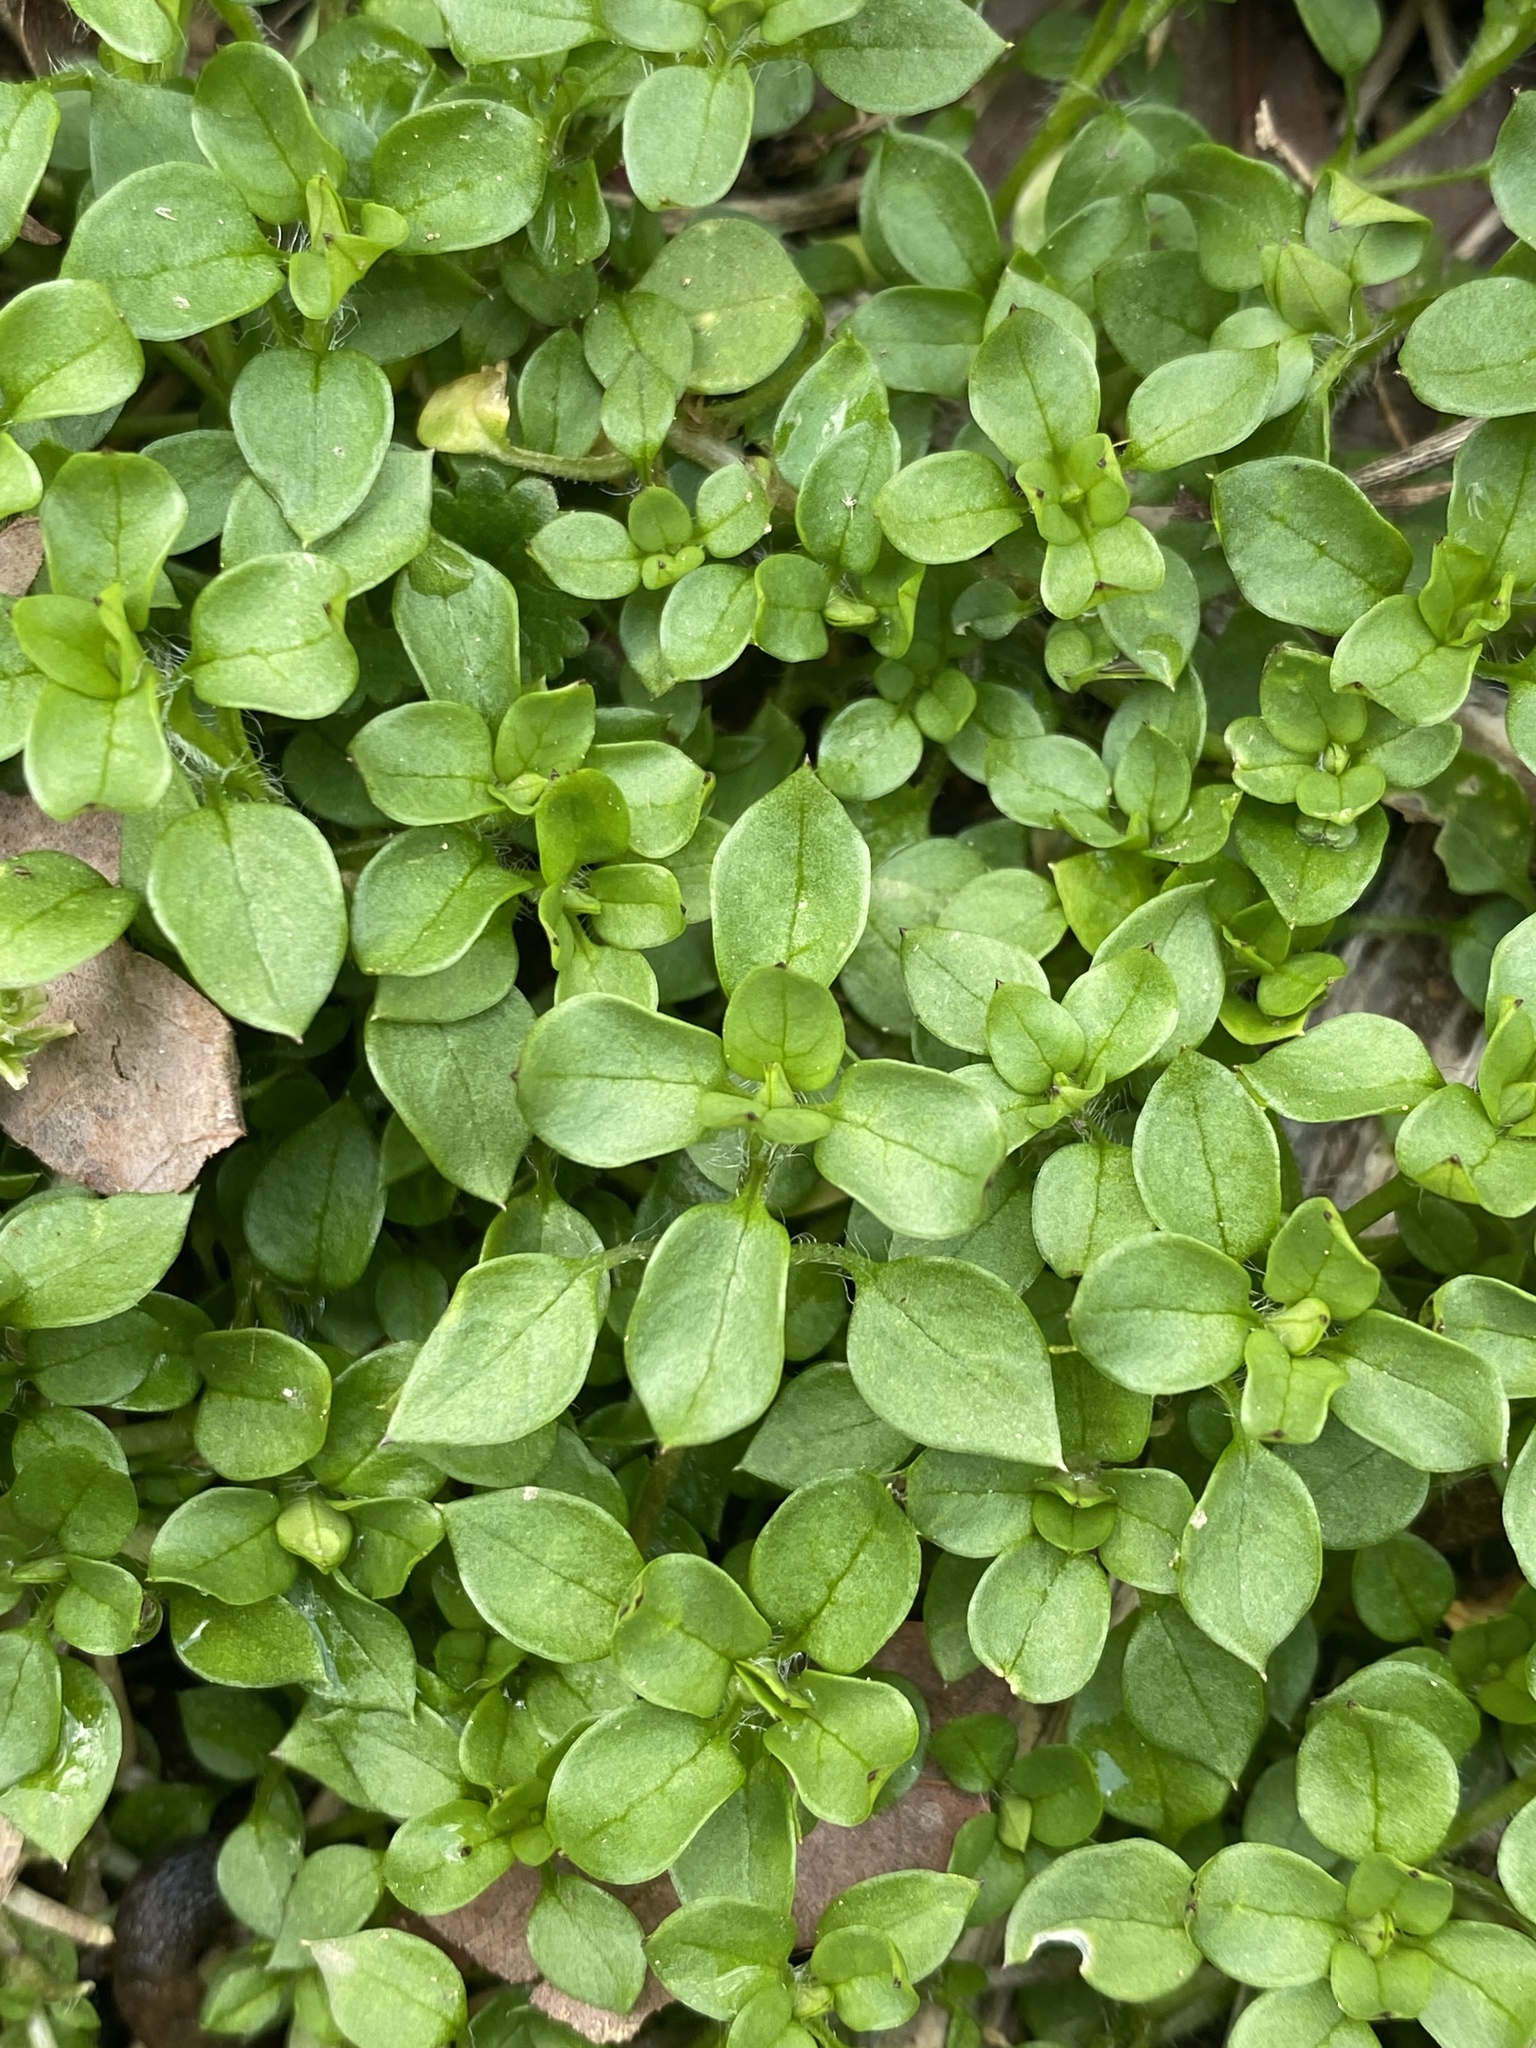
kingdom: Plantae
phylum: Tracheophyta
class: Magnoliopsida
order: Caryophyllales
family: Caryophyllaceae
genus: Stellaria
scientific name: Stellaria media
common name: Common chickweed
